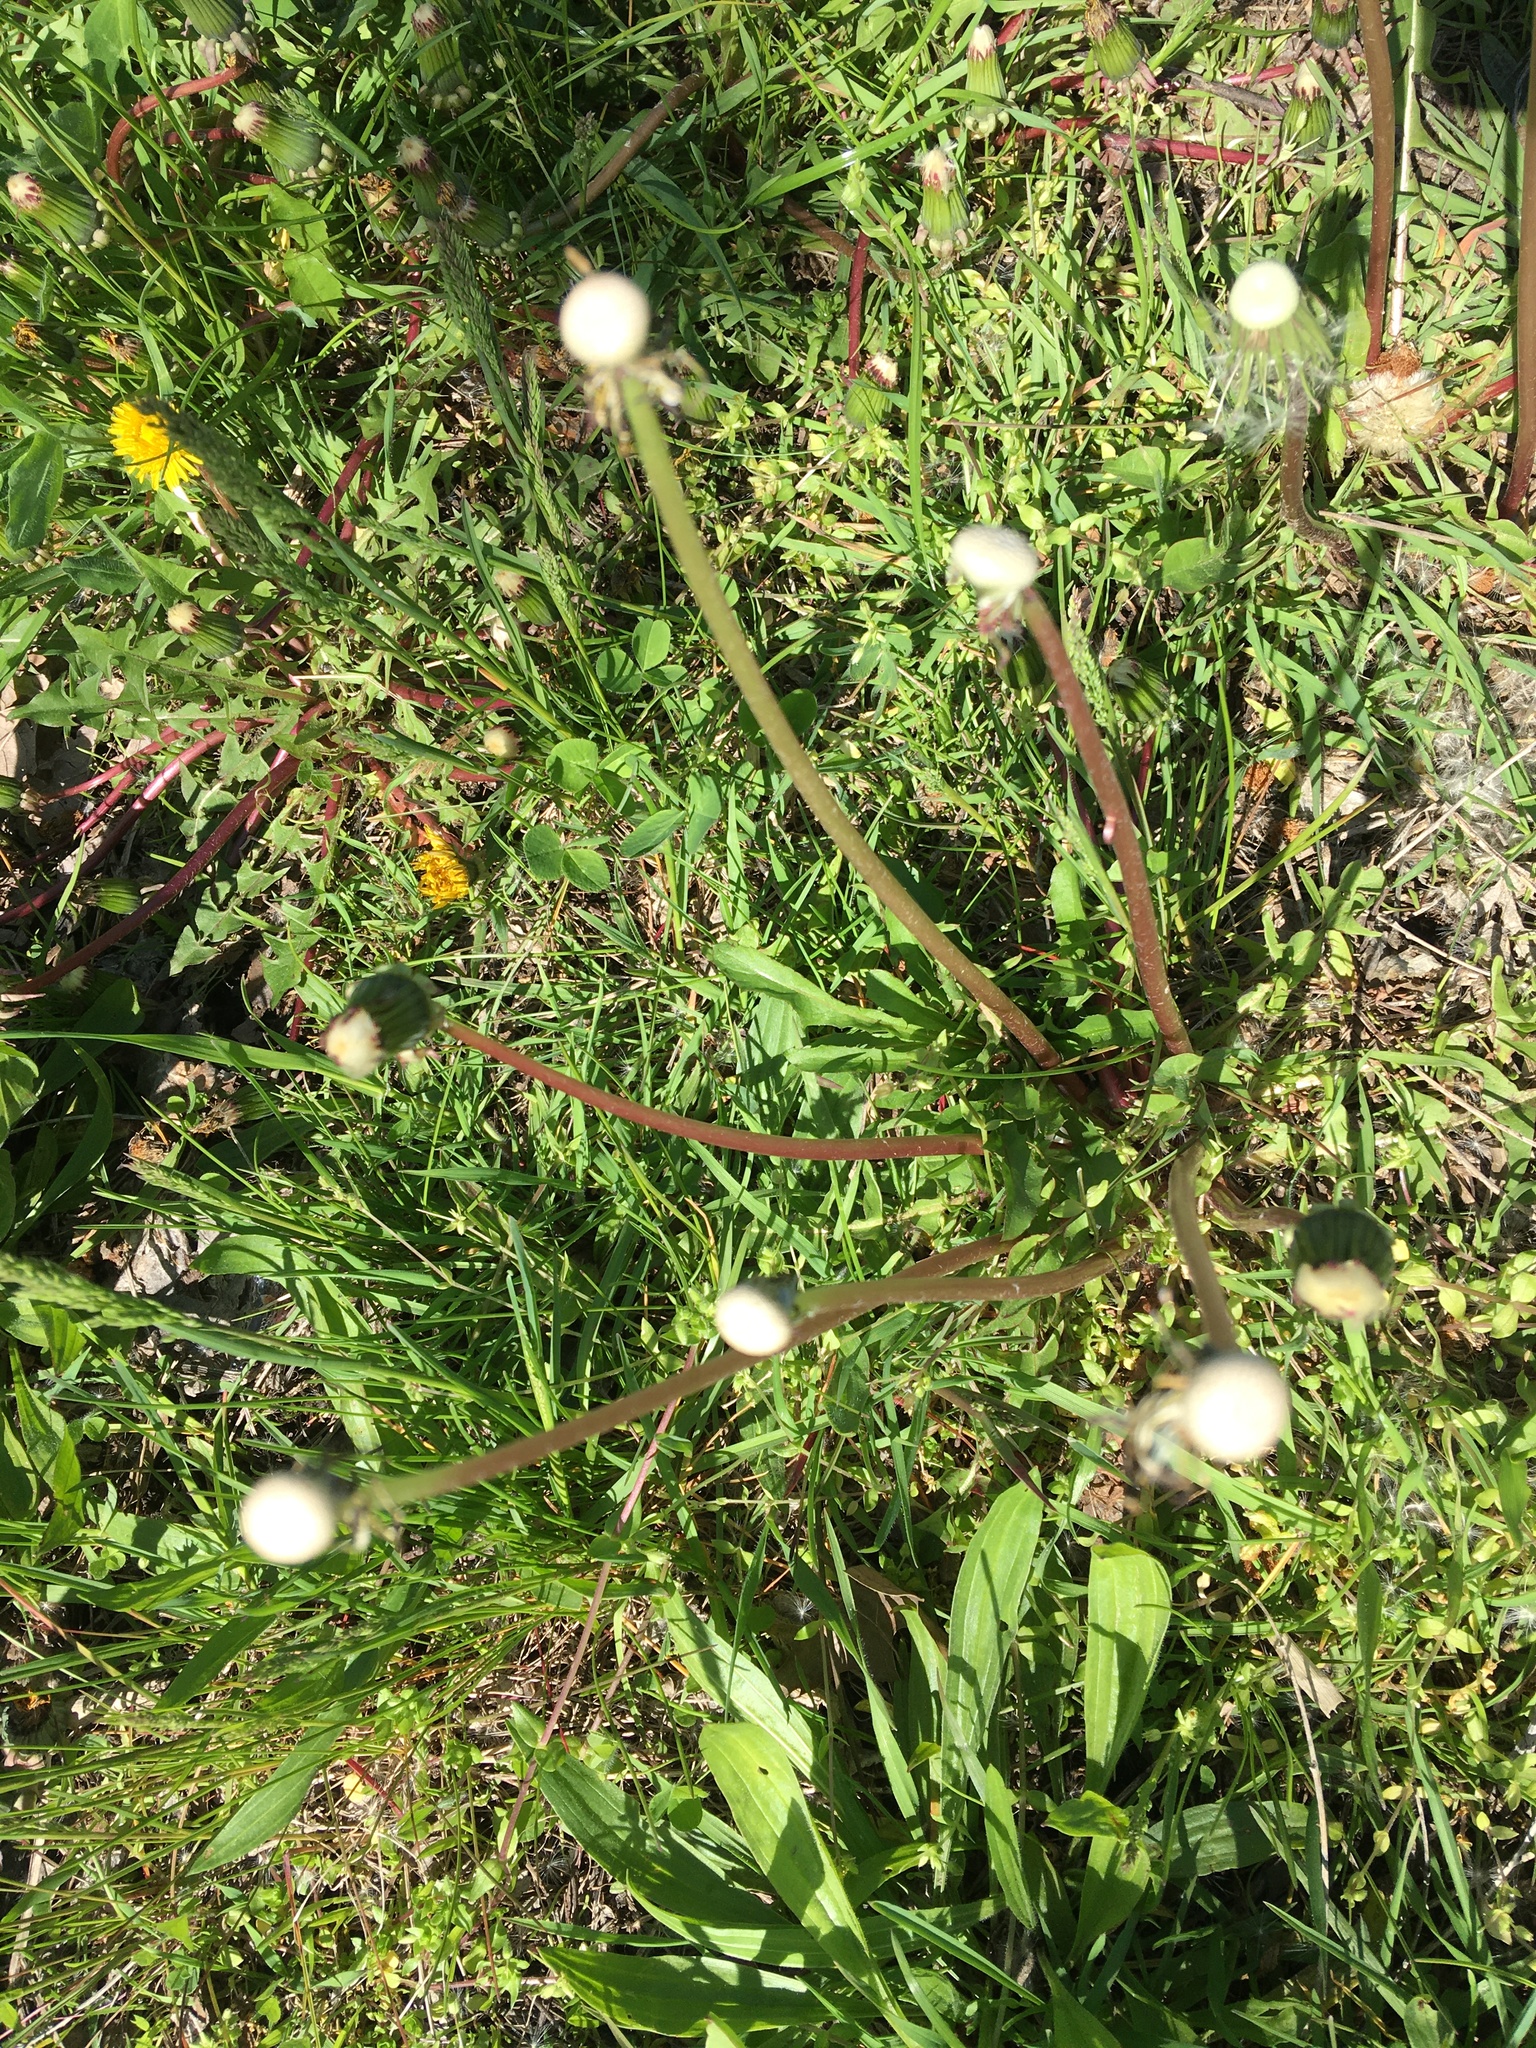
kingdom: Plantae
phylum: Tracheophyta
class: Magnoliopsida
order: Asterales
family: Asteraceae
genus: Taraxacum
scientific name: Taraxacum officinale
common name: Common dandelion
